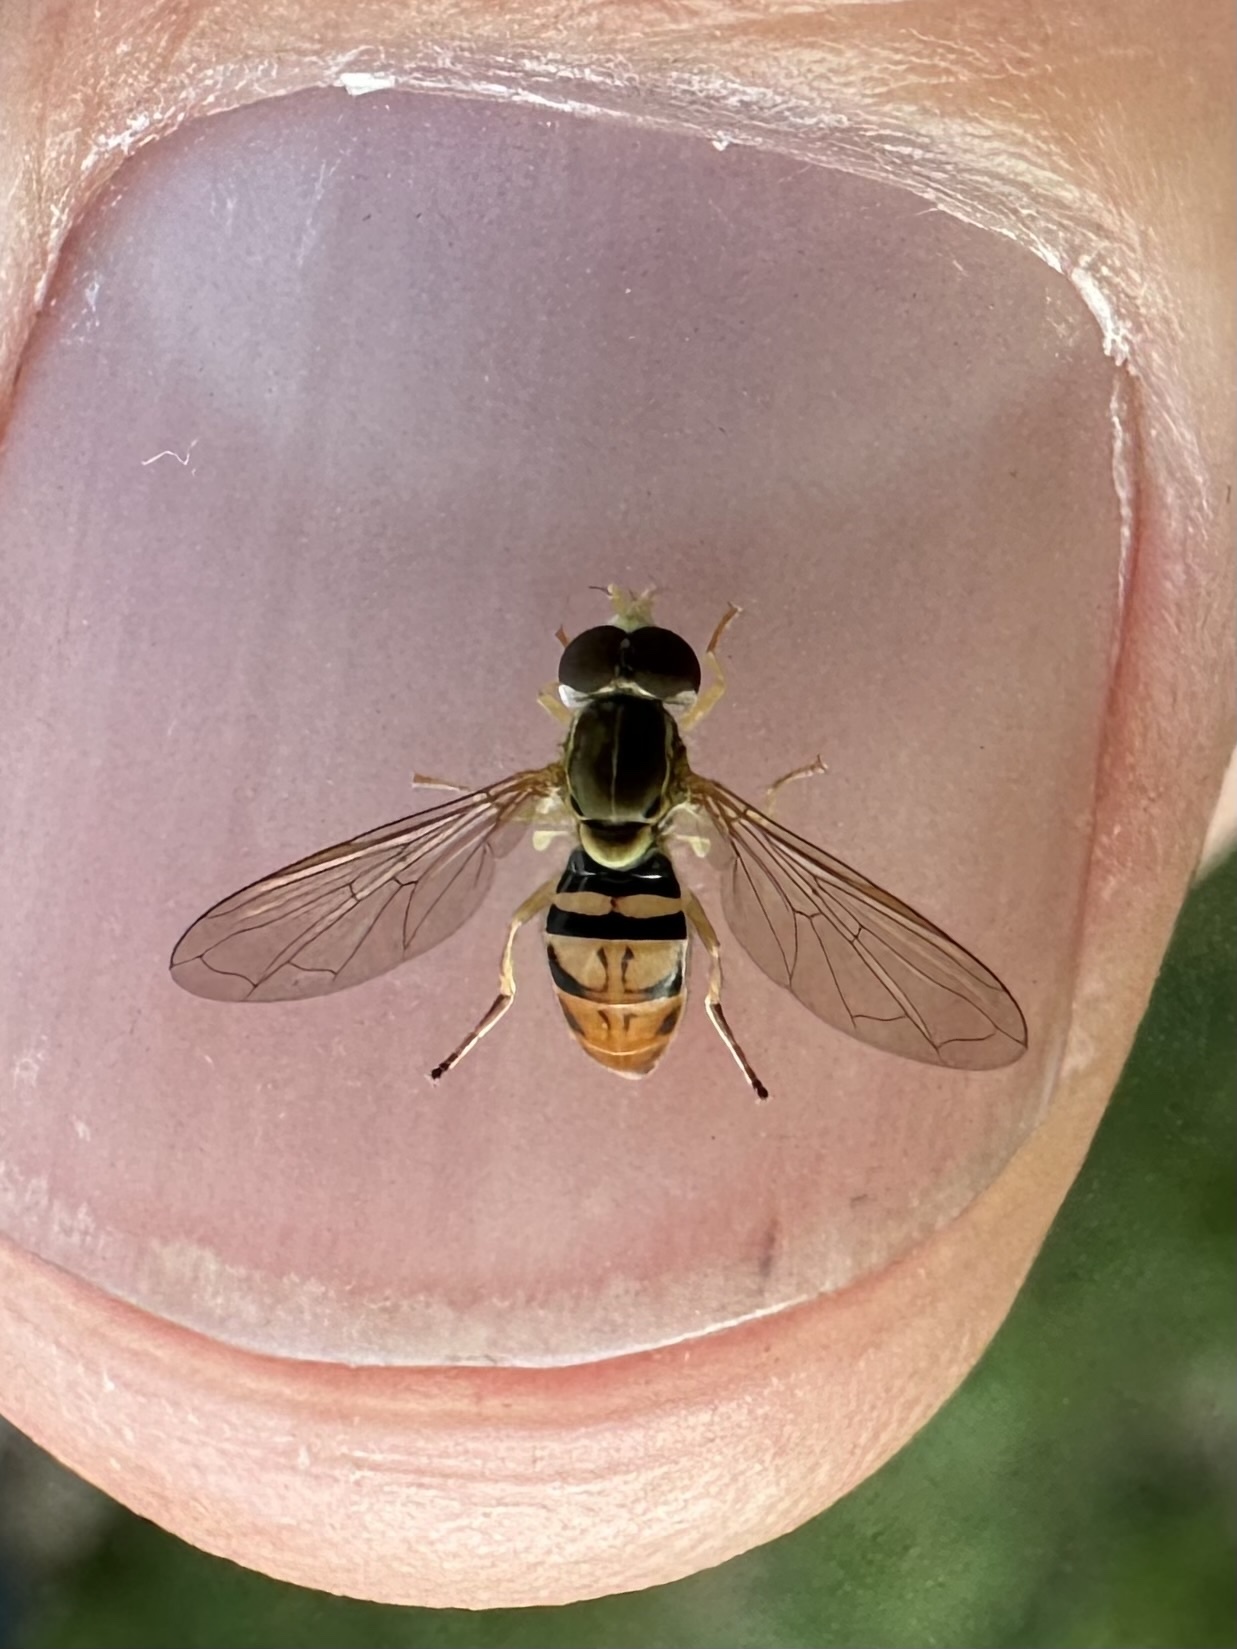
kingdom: Animalia
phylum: Arthropoda
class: Insecta
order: Diptera
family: Syrphidae
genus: Toxomerus
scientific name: Toxomerus marginatus
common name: Syrphid fly
